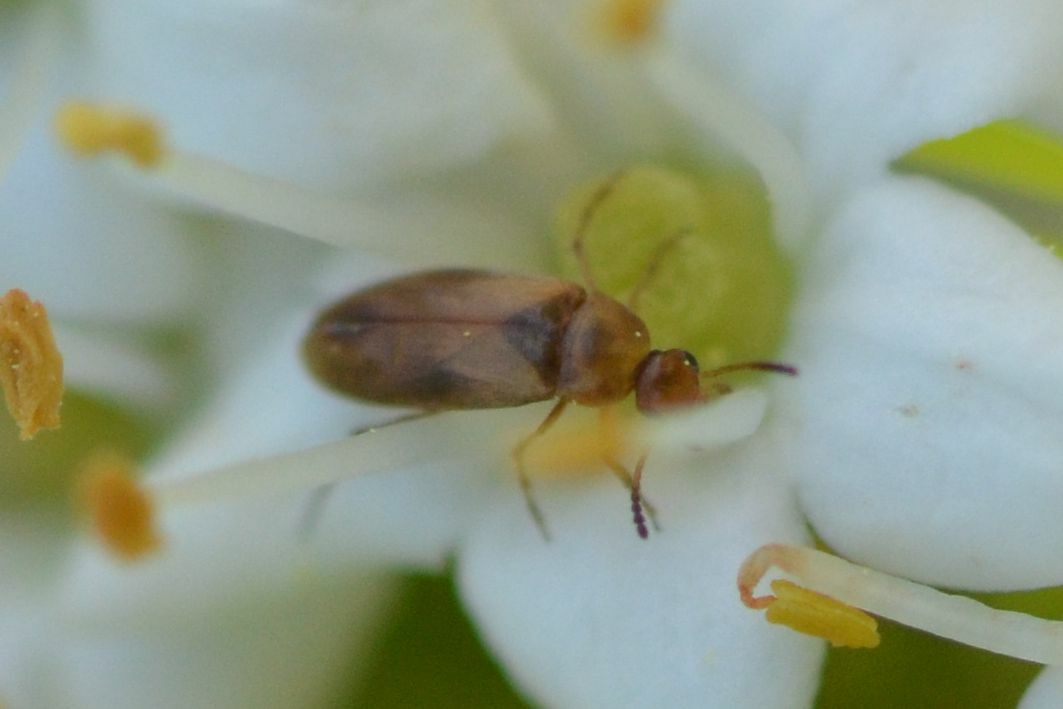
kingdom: Animalia
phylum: Arthropoda
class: Insecta
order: Coleoptera
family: Scraptiidae
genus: Anaspis
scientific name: Anaspis maculata
